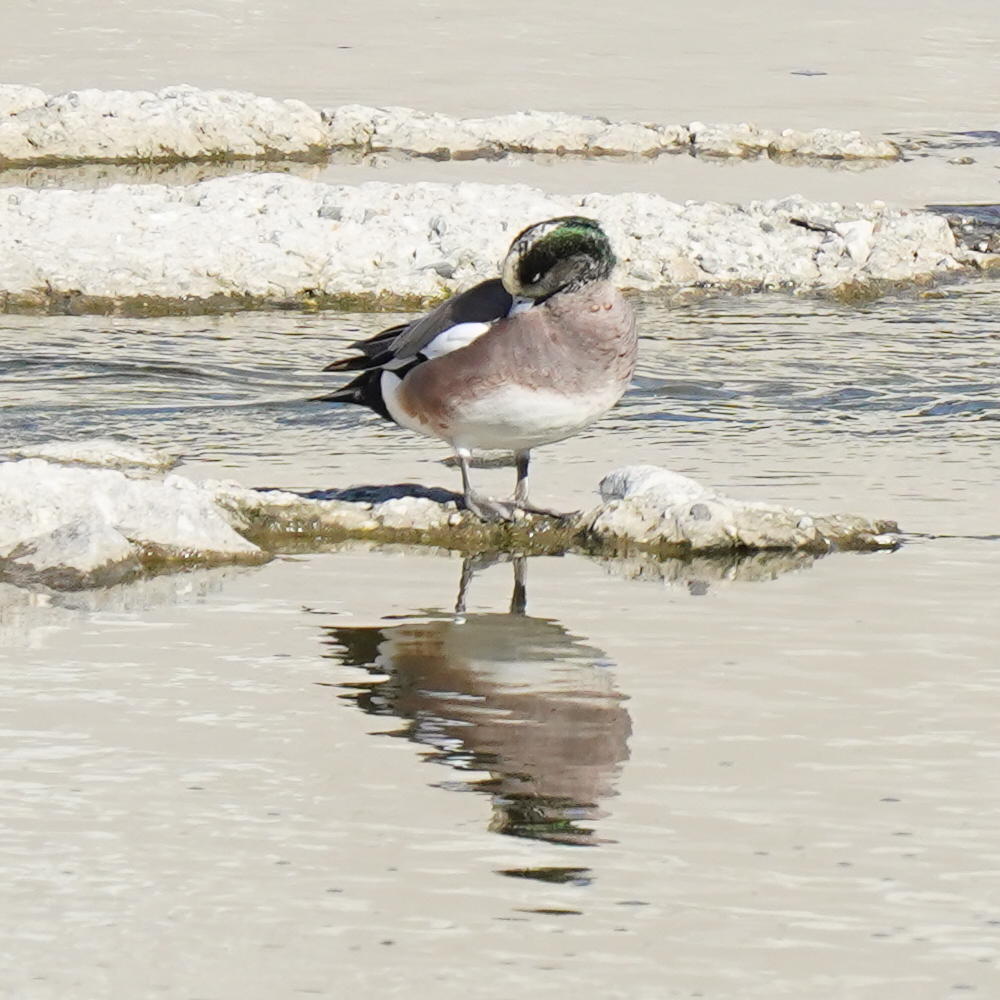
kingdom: Animalia
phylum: Chordata
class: Aves
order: Anseriformes
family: Anatidae
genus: Mareca
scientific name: Mareca americana
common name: American wigeon
